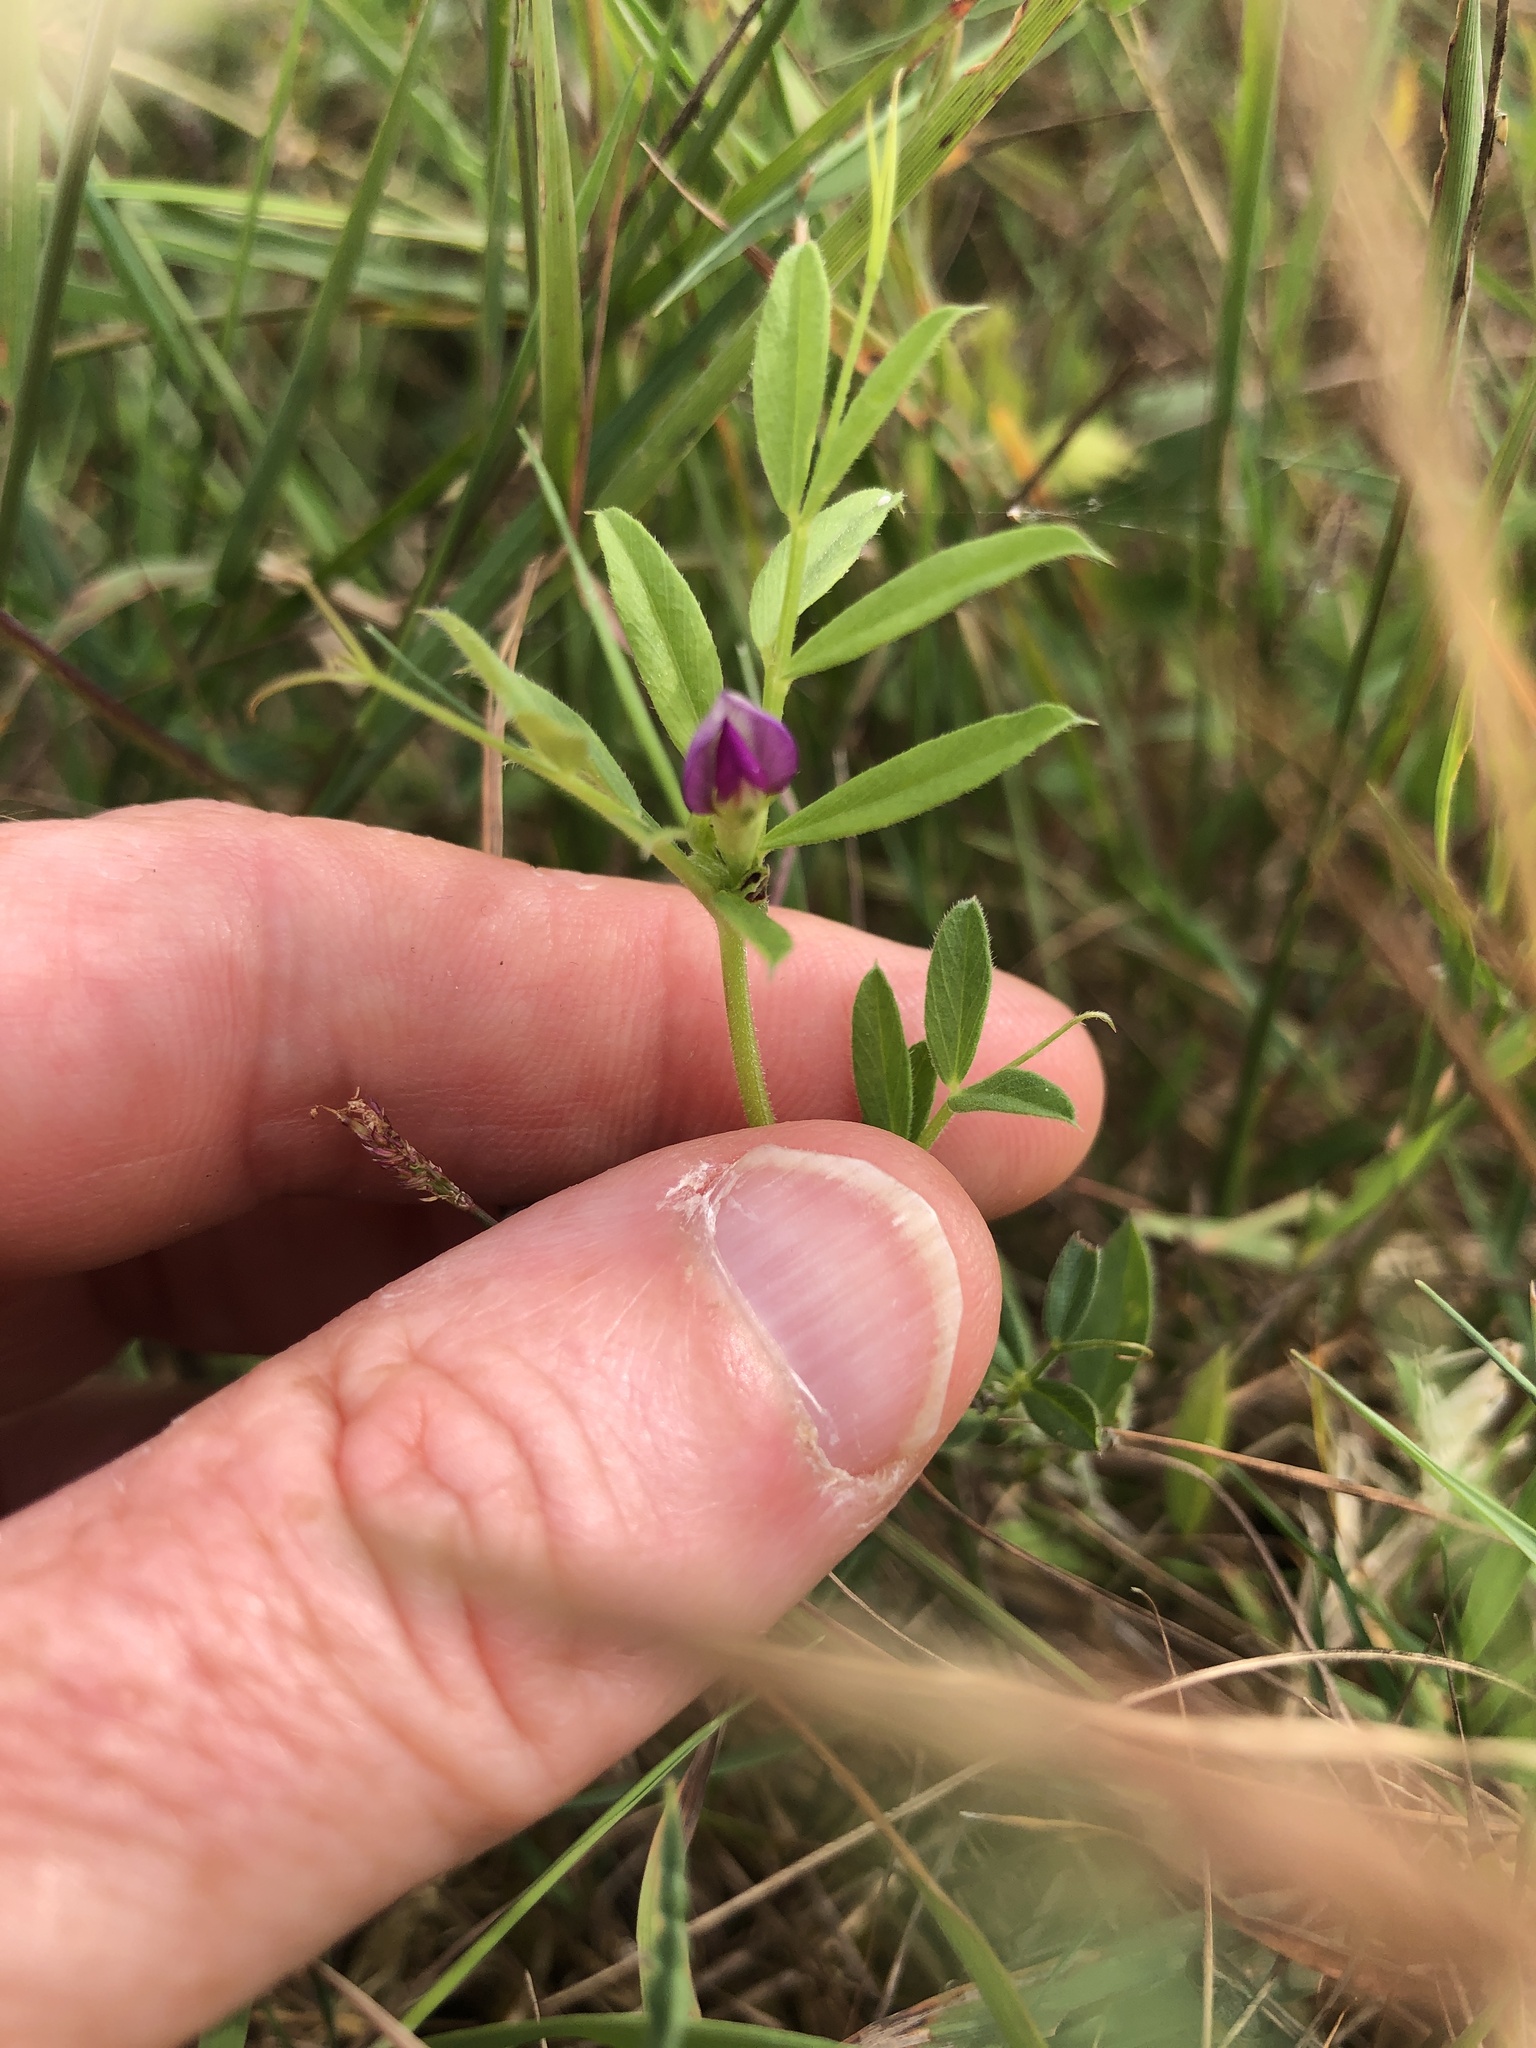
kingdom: Plantae
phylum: Tracheophyta
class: Magnoliopsida
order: Fabales
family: Fabaceae
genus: Vicia
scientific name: Vicia sativa
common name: Garden vetch
